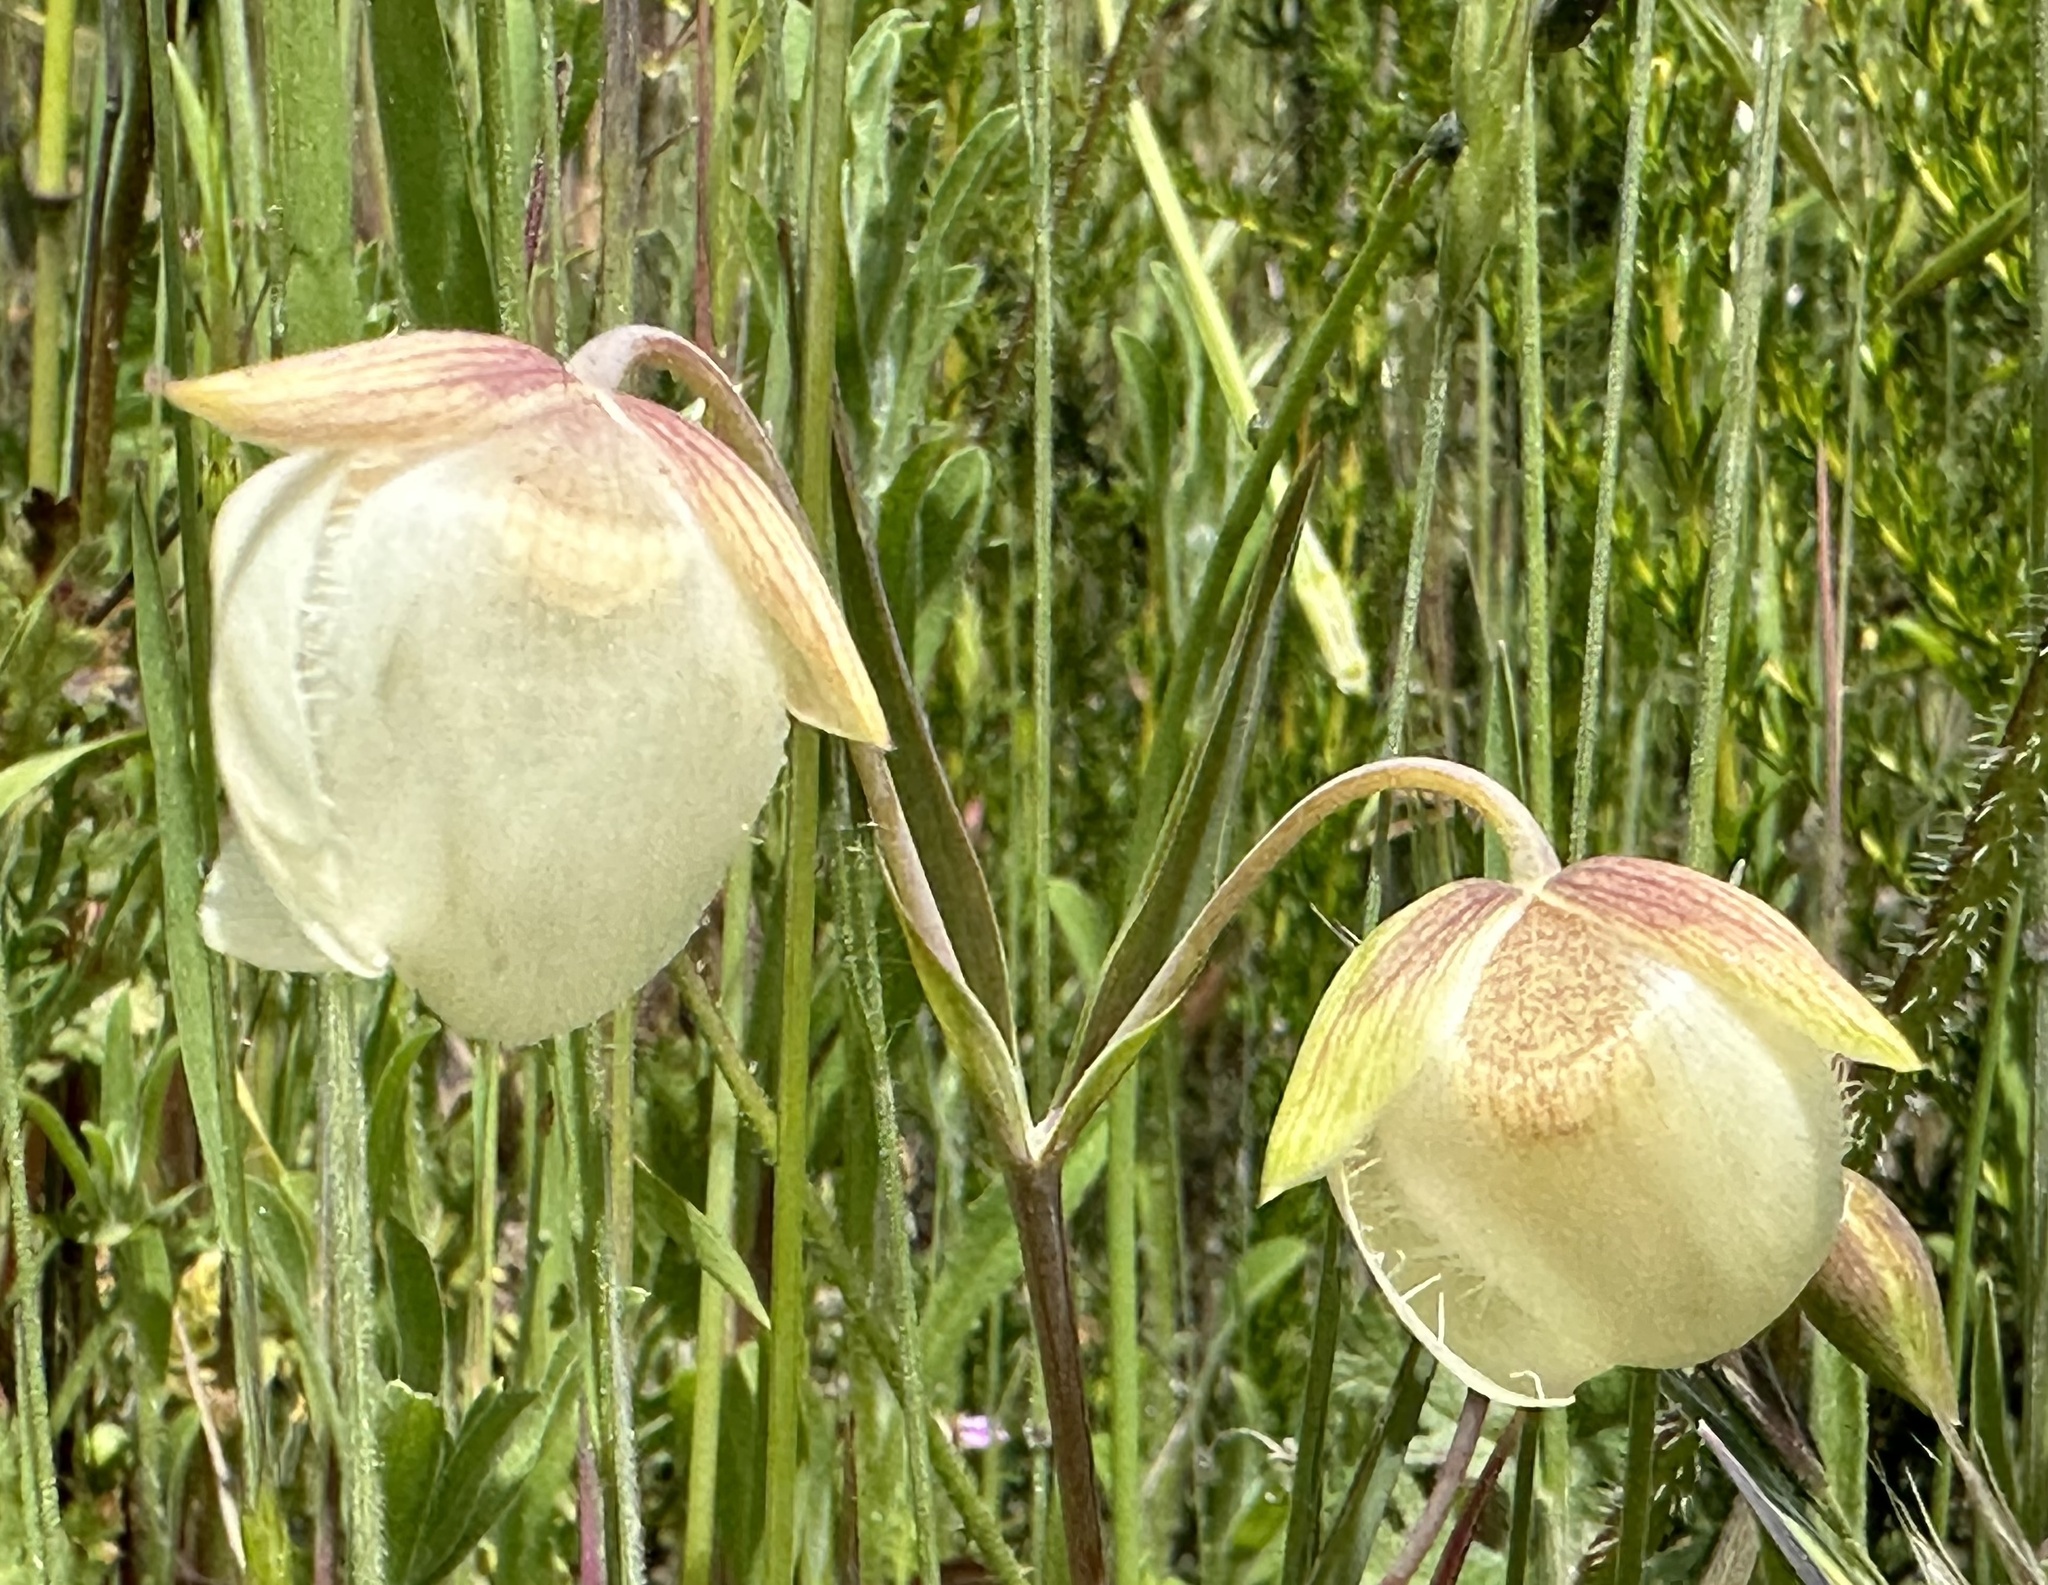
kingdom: Plantae
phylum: Tracheophyta
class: Liliopsida
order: Liliales
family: Liliaceae
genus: Calochortus
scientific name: Calochortus albus
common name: Fairy-lantern
